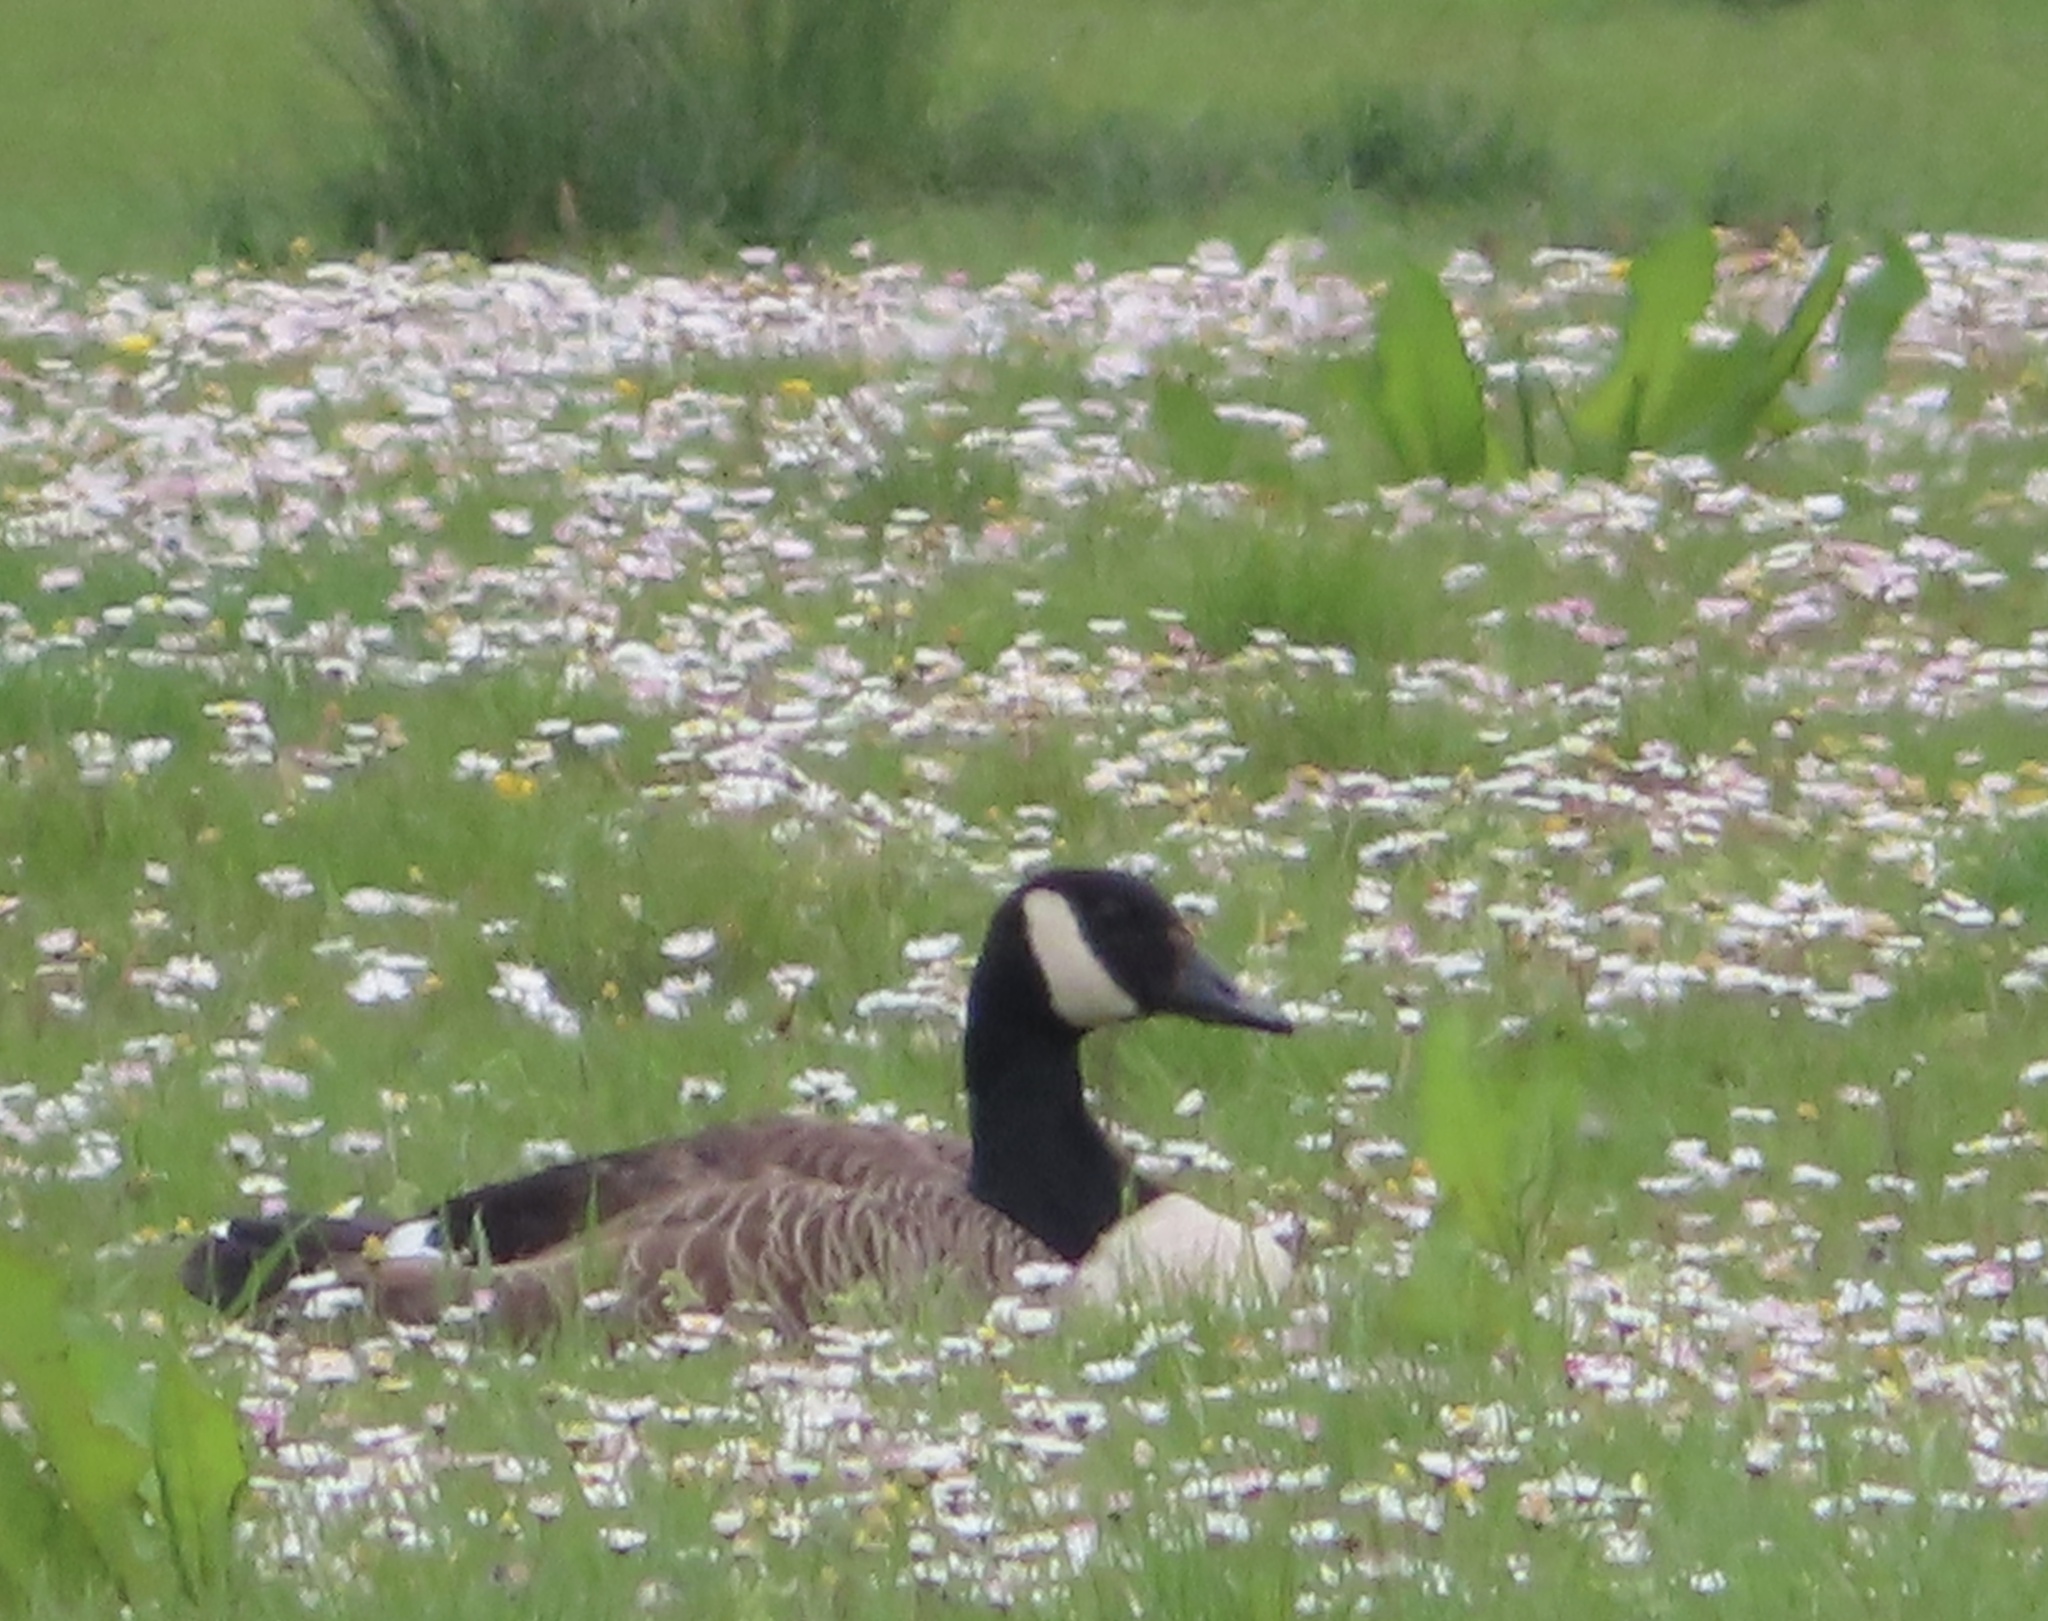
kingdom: Animalia
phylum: Chordata
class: Aves
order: Anseriformes
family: Anatidae
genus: Branta
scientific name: Branta canadensis
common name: Canada goose
